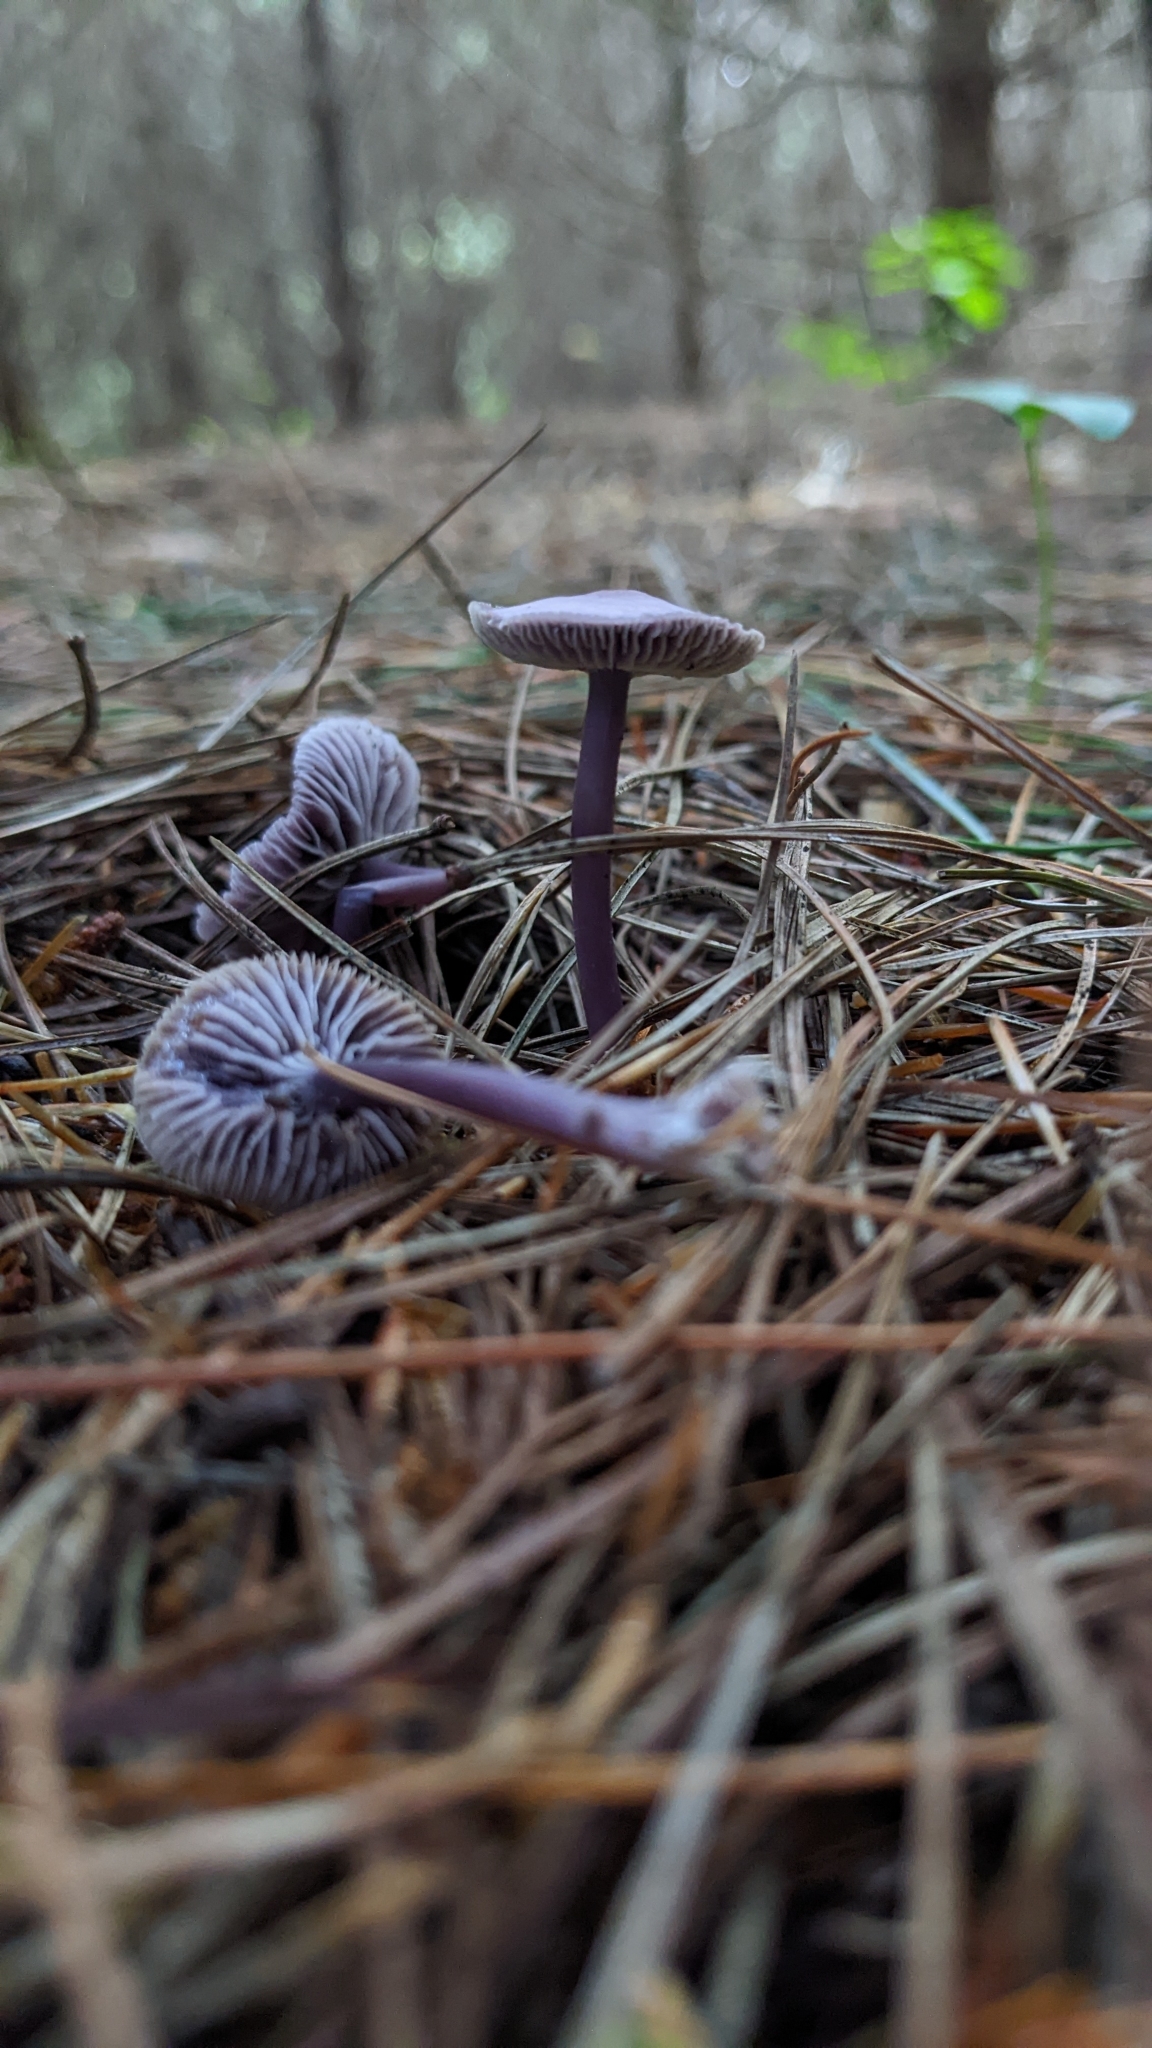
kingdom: Fungi
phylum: Basidiomycota
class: Agaricomycetes
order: Agaricales
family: Mycenaceae
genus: Mycena
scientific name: Mycena pura
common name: Lilac bonnet
